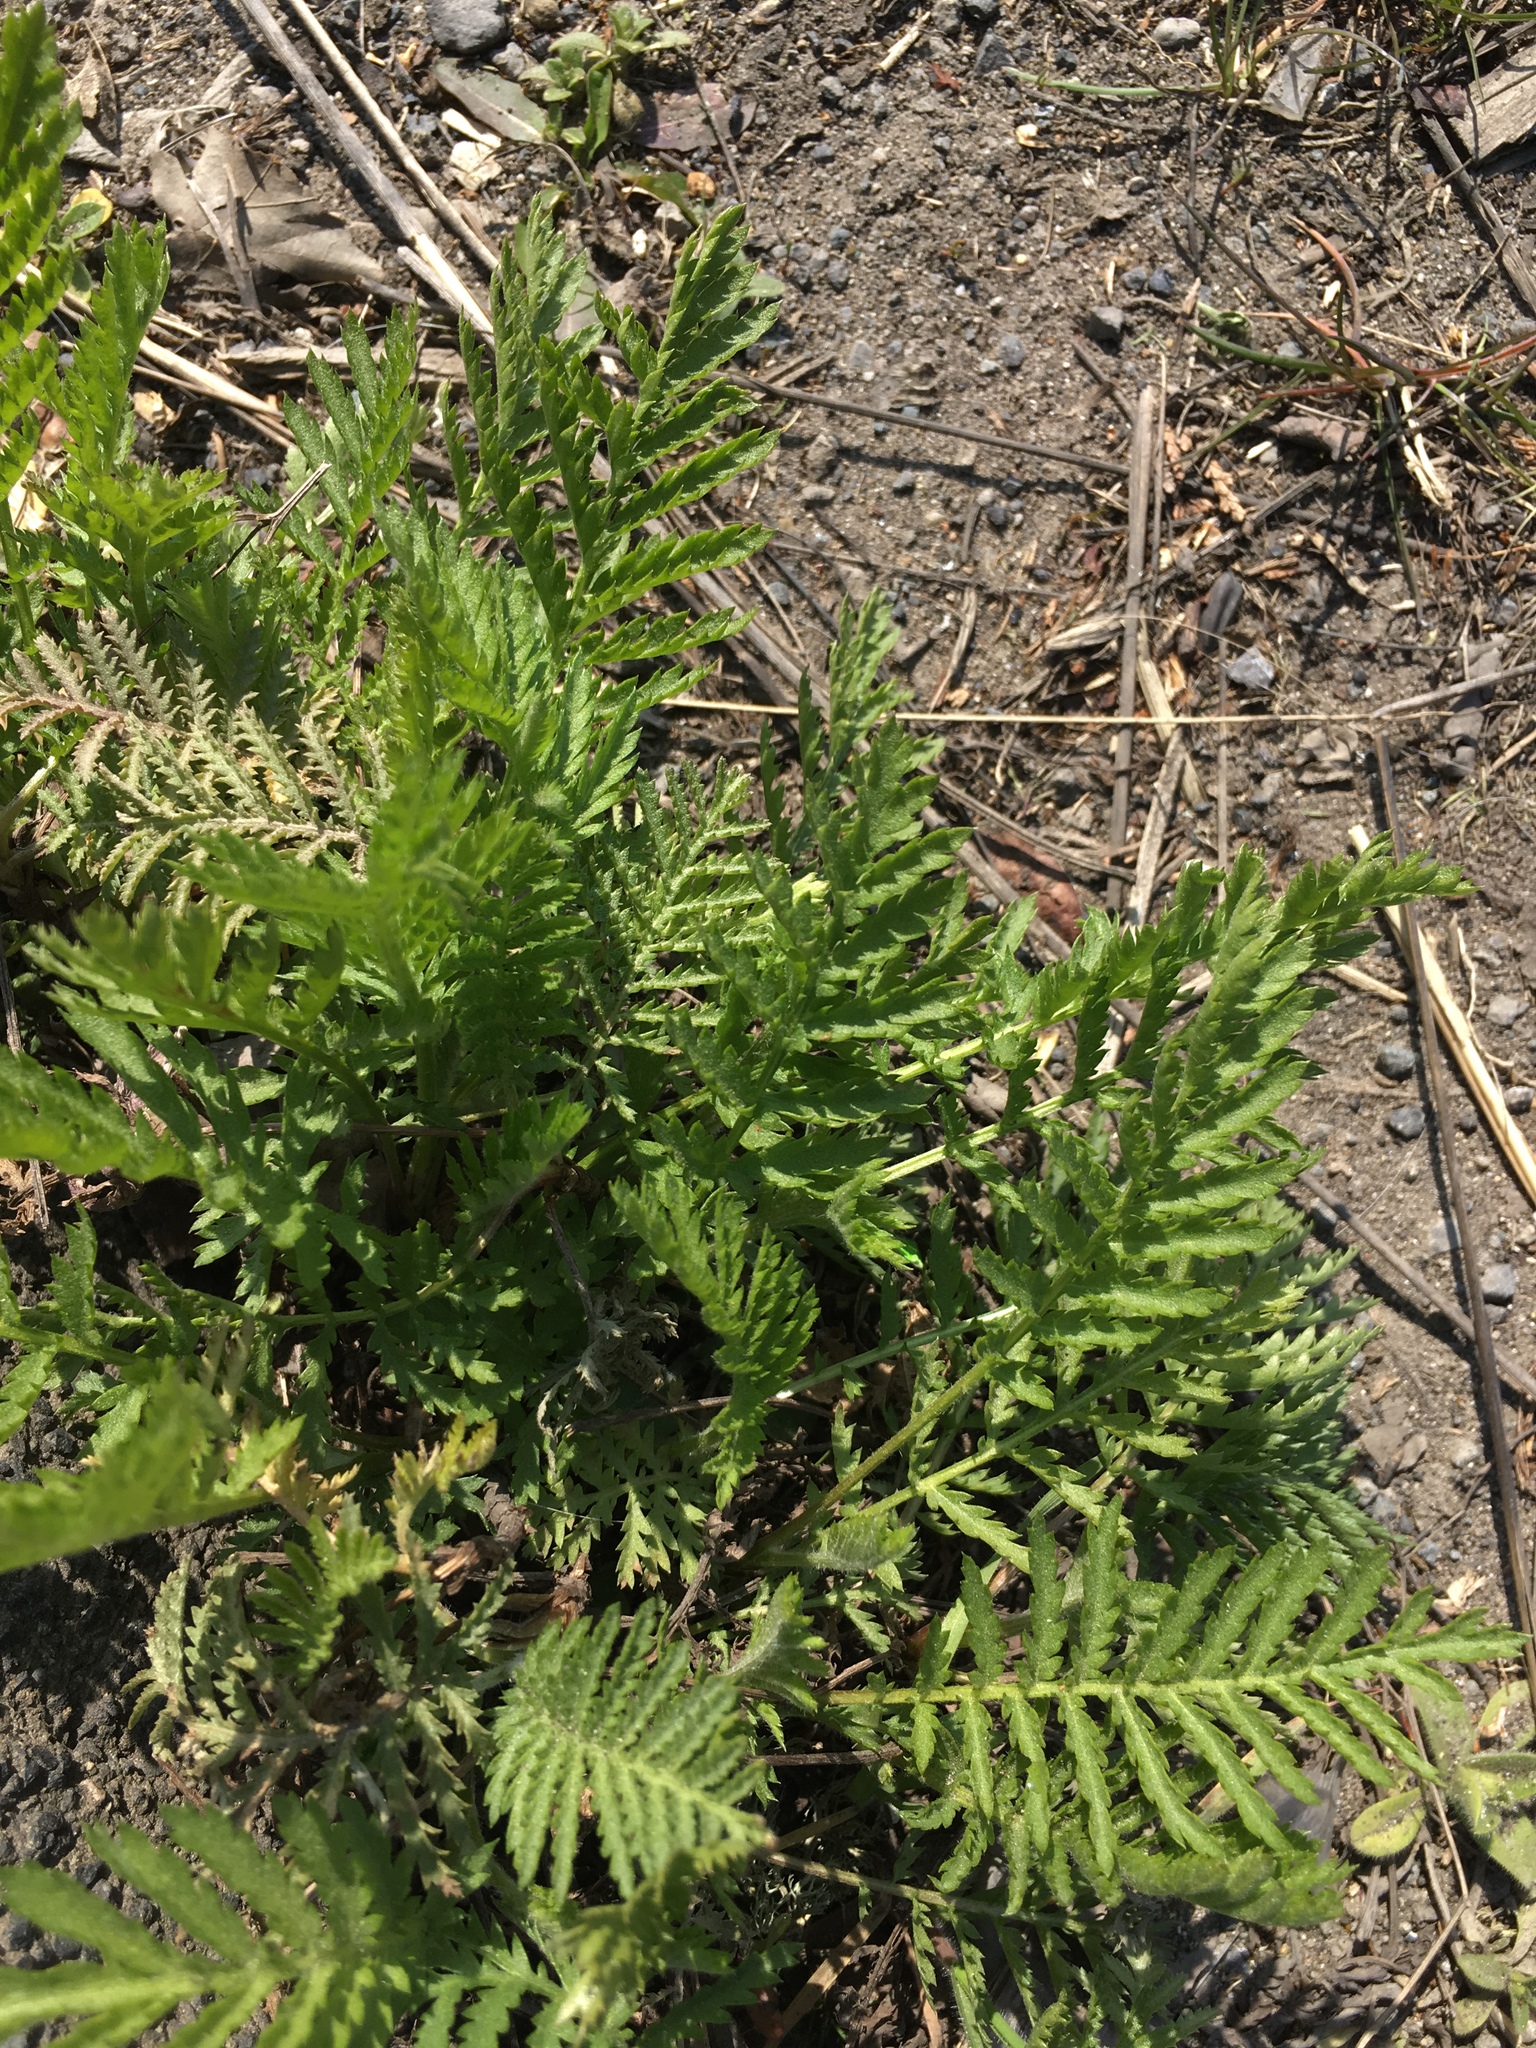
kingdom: Plantae
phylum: Tracheophyta
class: Magnoliopsida
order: Asterales
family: Asteraceae
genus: Tanacetum
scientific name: Tanacetum vulgare
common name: Common tansy
